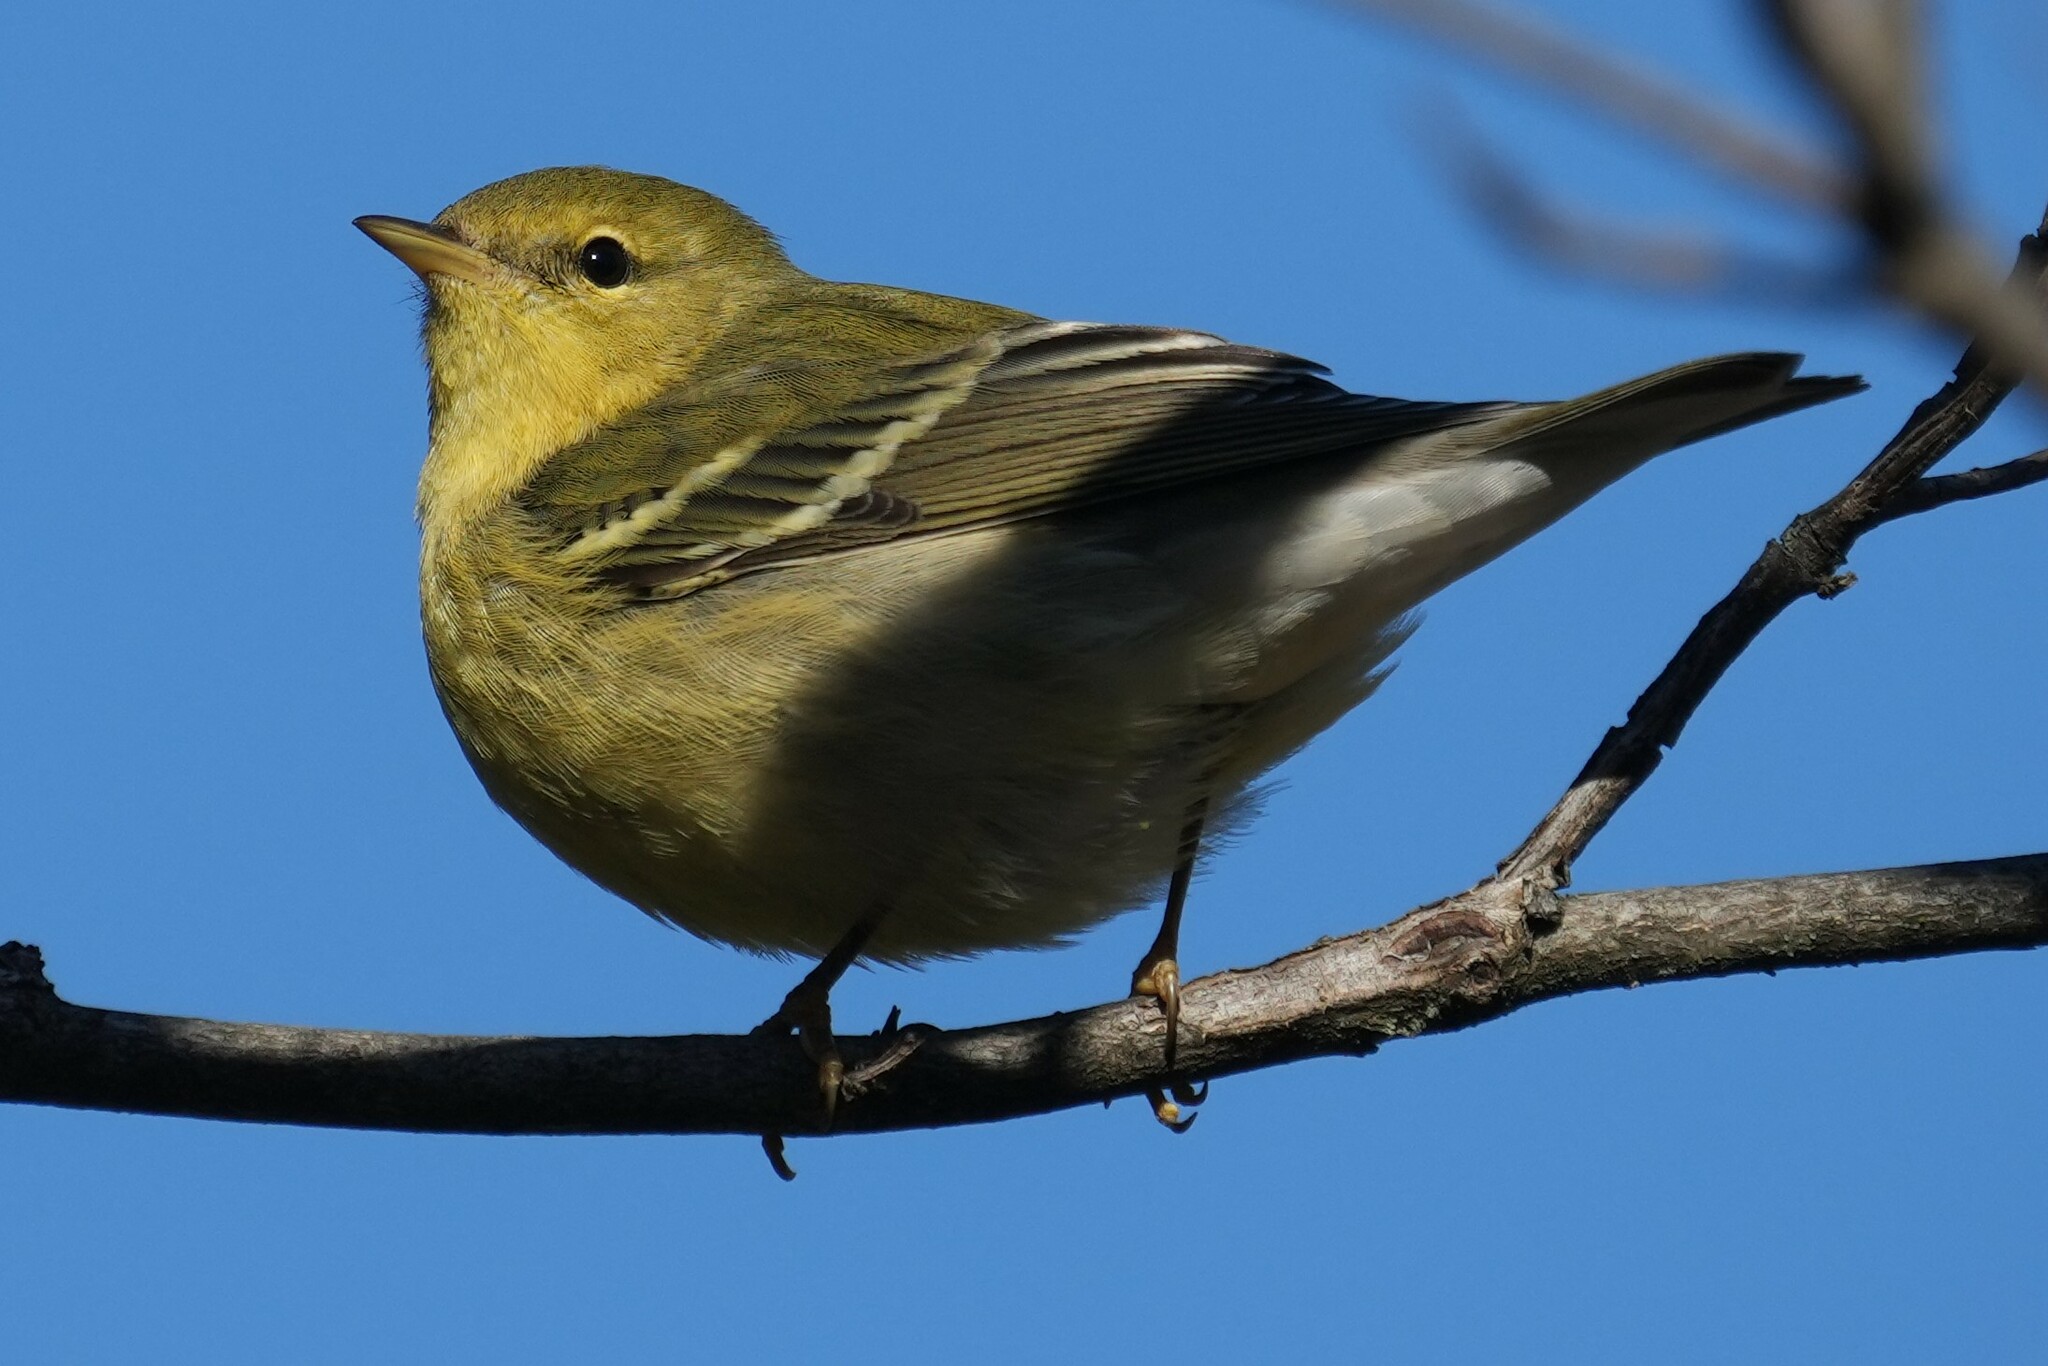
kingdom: Animalia
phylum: Chordata
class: Aves
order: Passeriformes
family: Parulidae
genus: Setophaga
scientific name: Setophaga striata
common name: Blackpoll warbler
